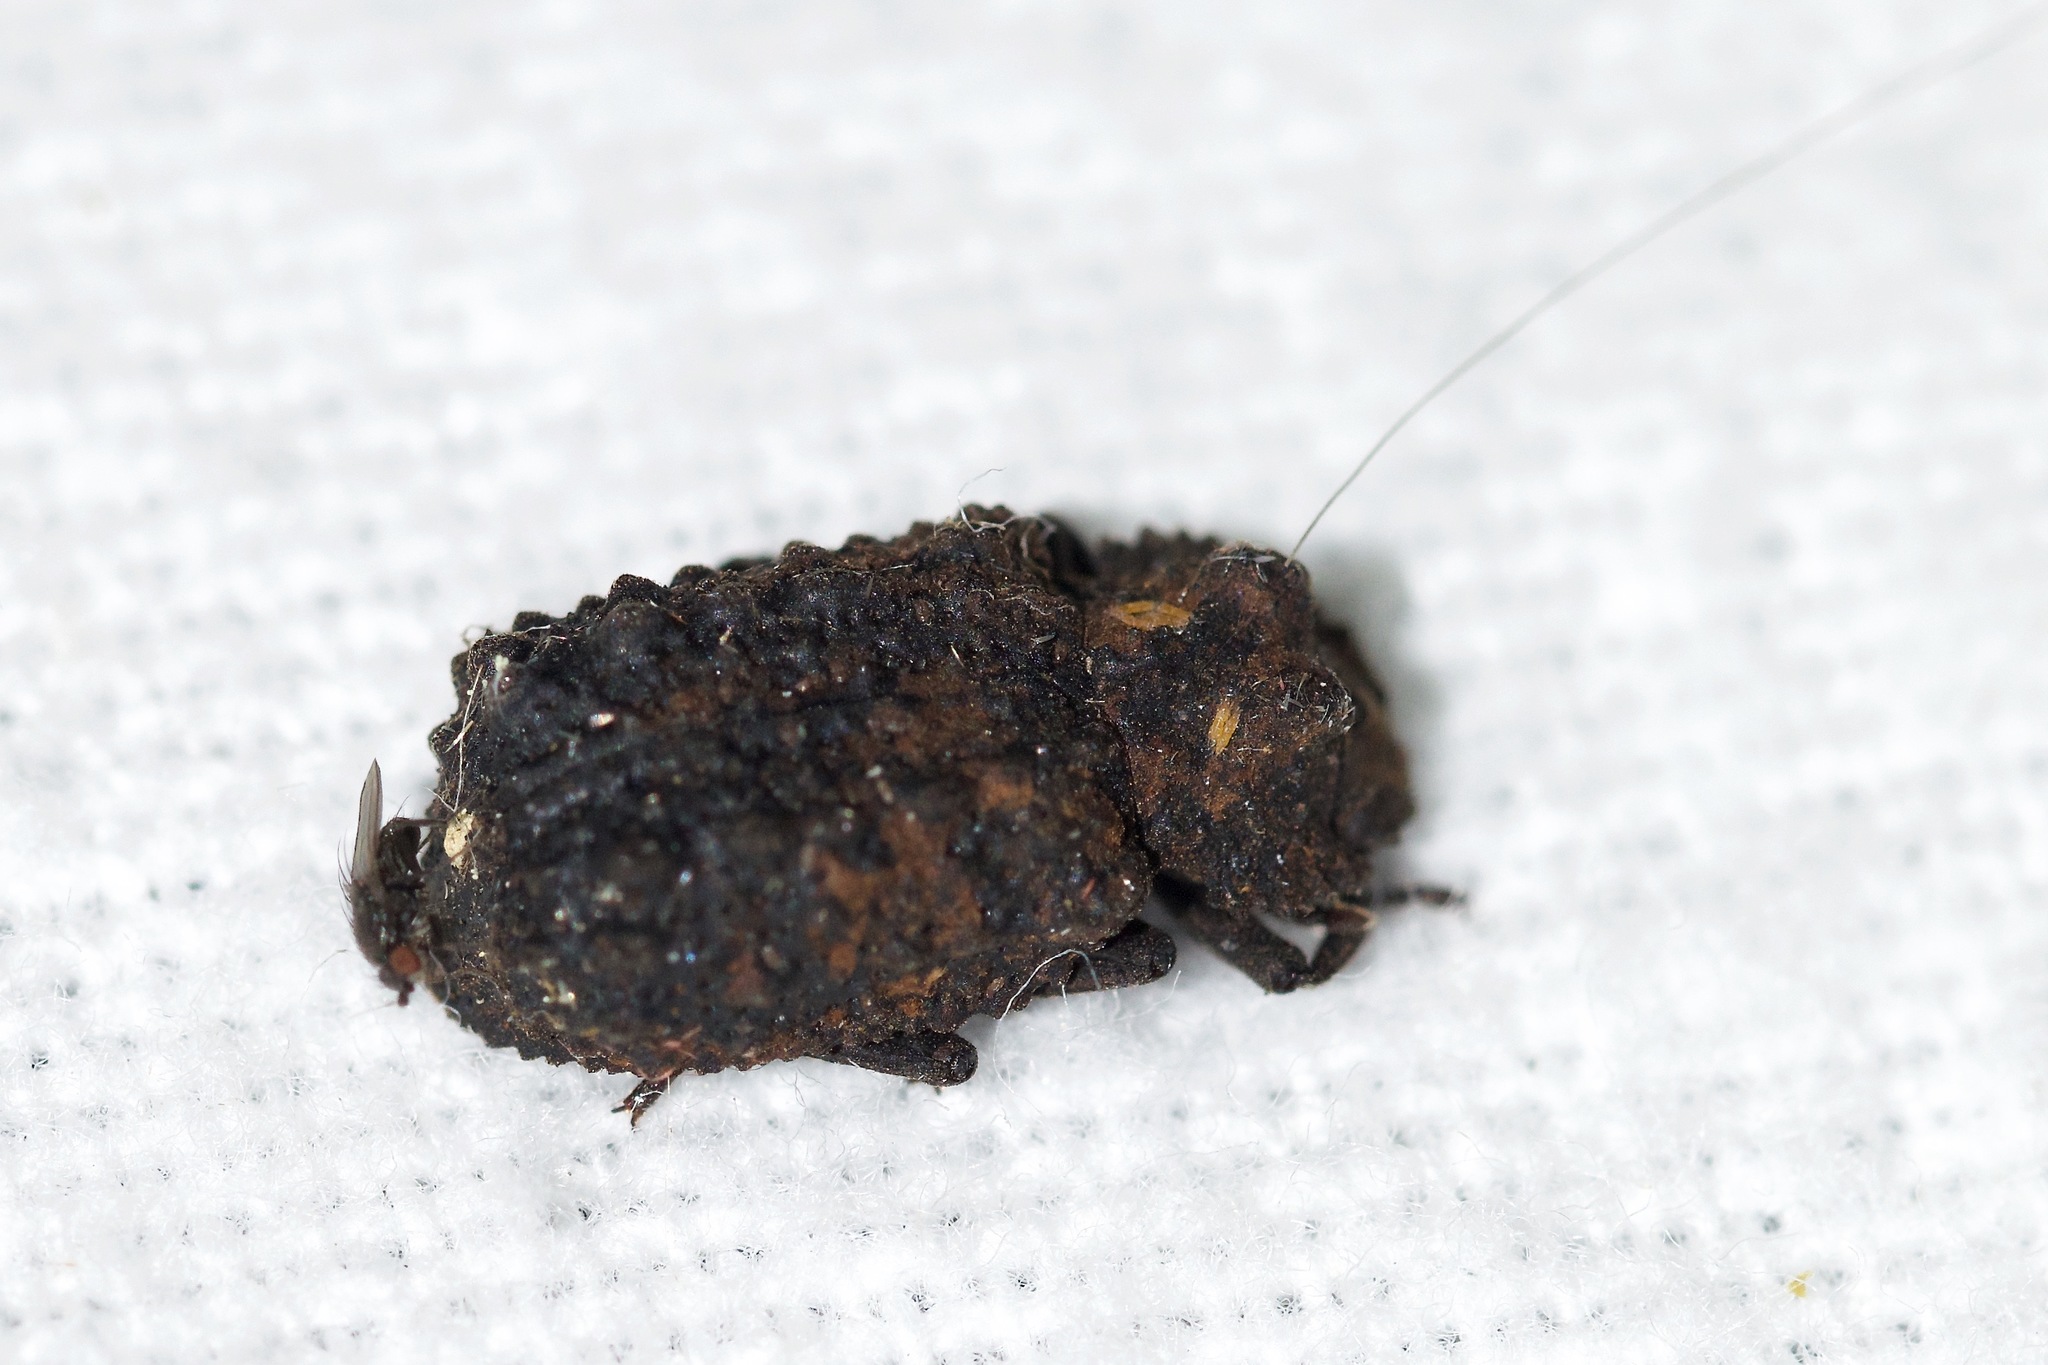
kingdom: Animalia
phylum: Arthropoda
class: Insecta
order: Coleoptera
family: Tenebrionidae
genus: Gnatocerus
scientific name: Gnatocerus cornutus
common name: Broad-horned flour beetle
